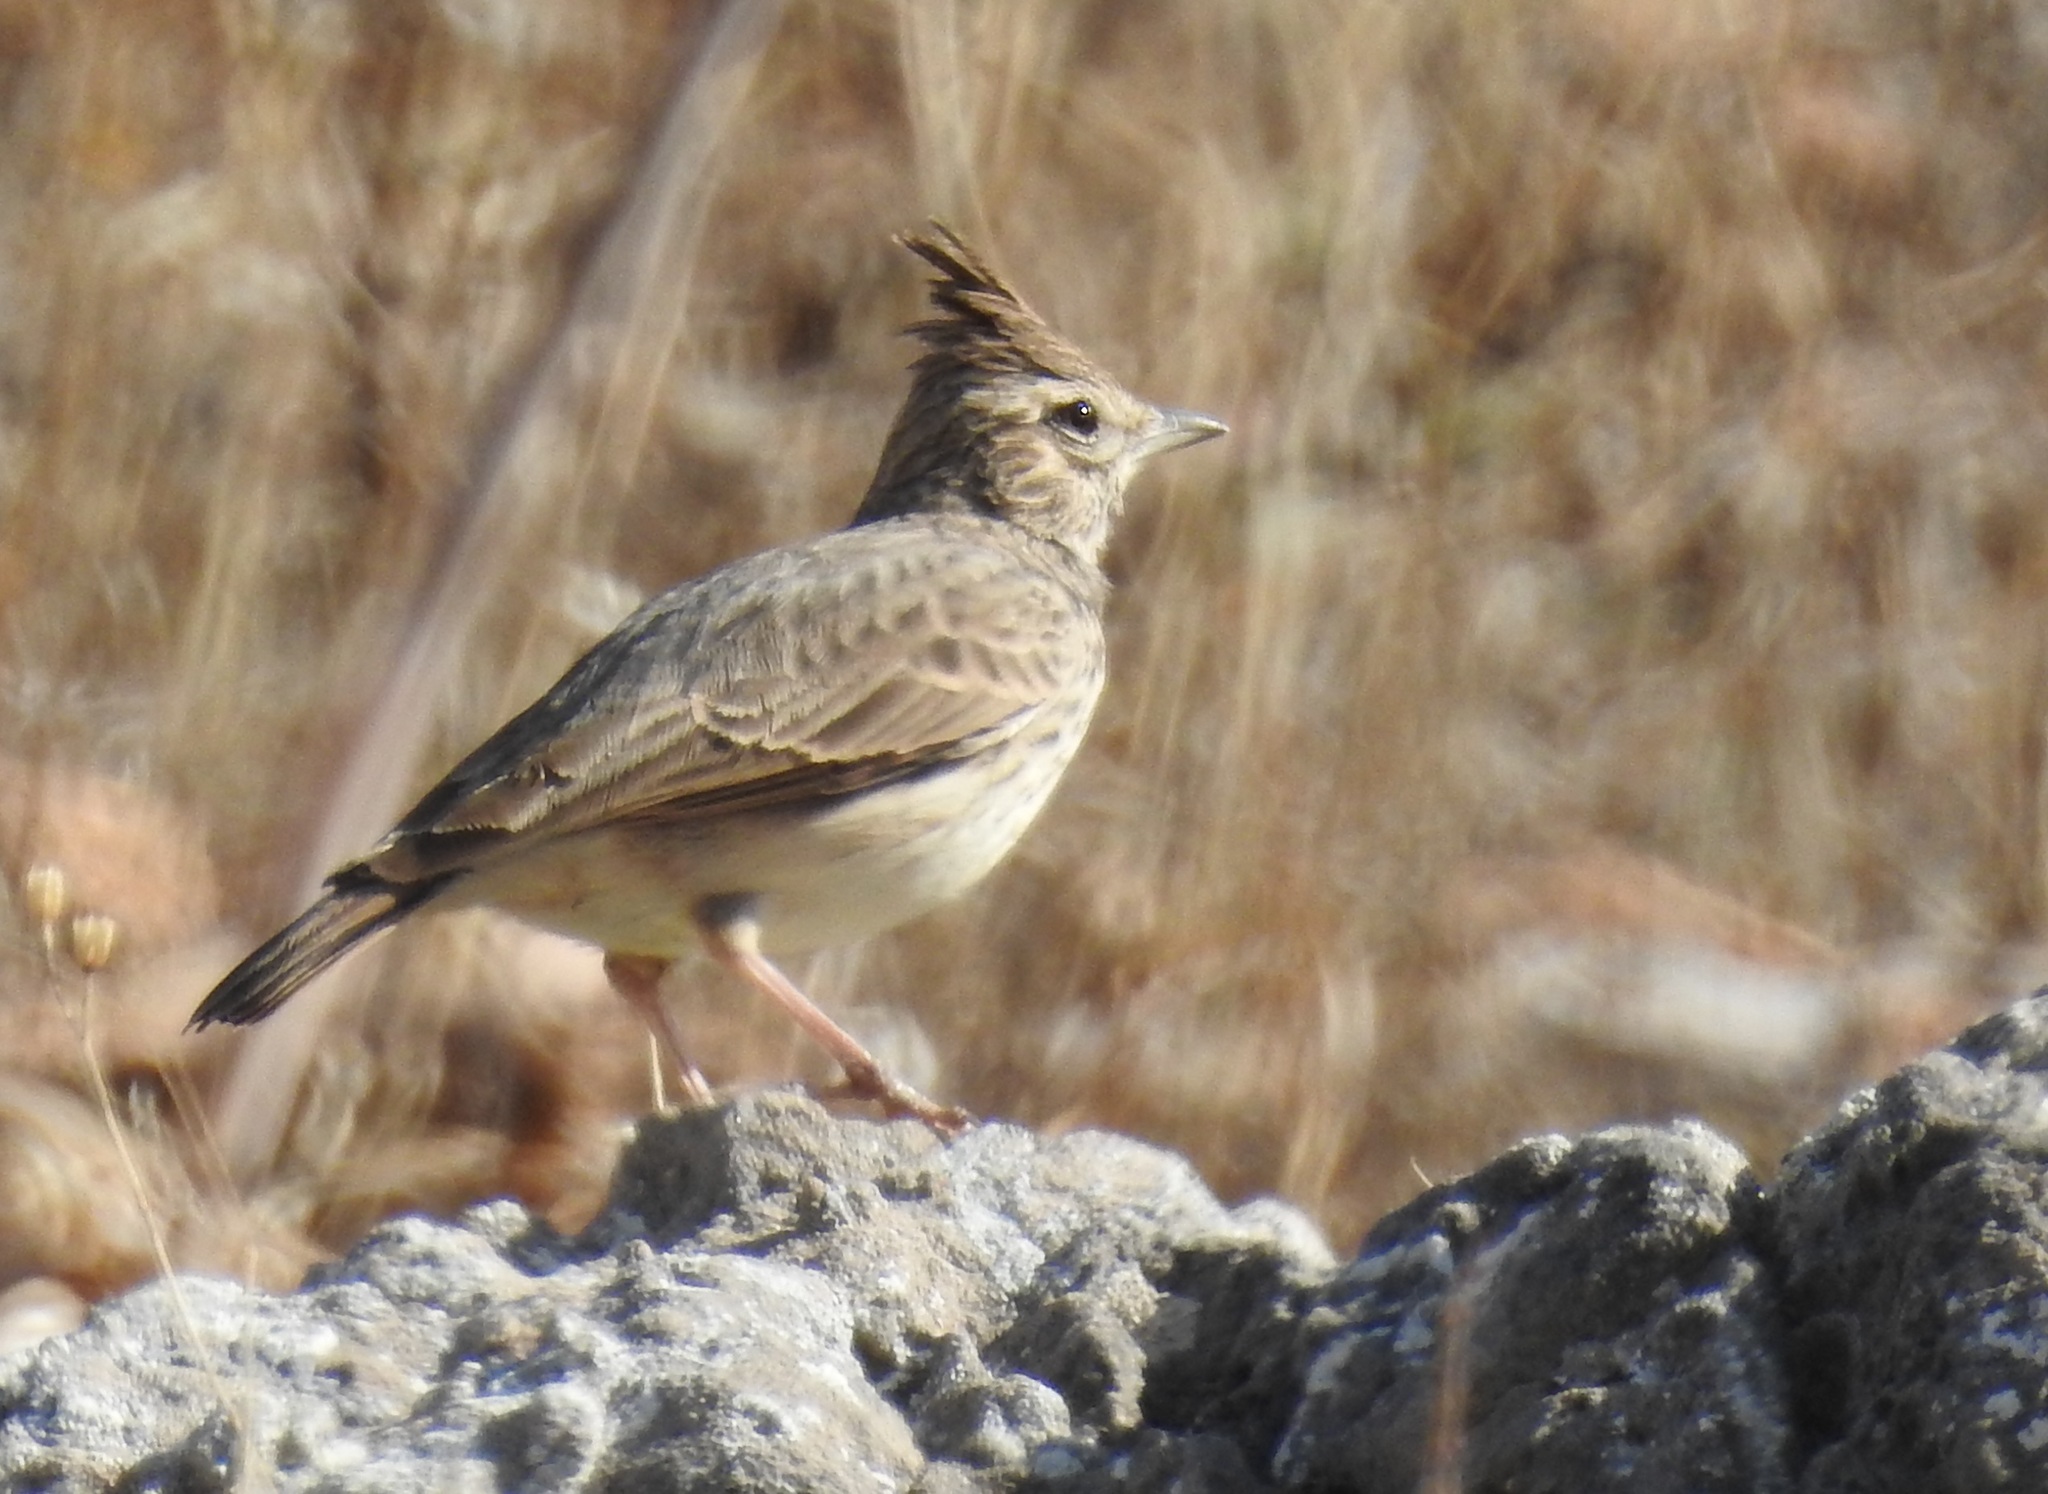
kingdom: Animalia
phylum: Chordata
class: Aves
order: Passeriformes
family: Alaudidae
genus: Galerida
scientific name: Galerida theklae
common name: Thekla lark
